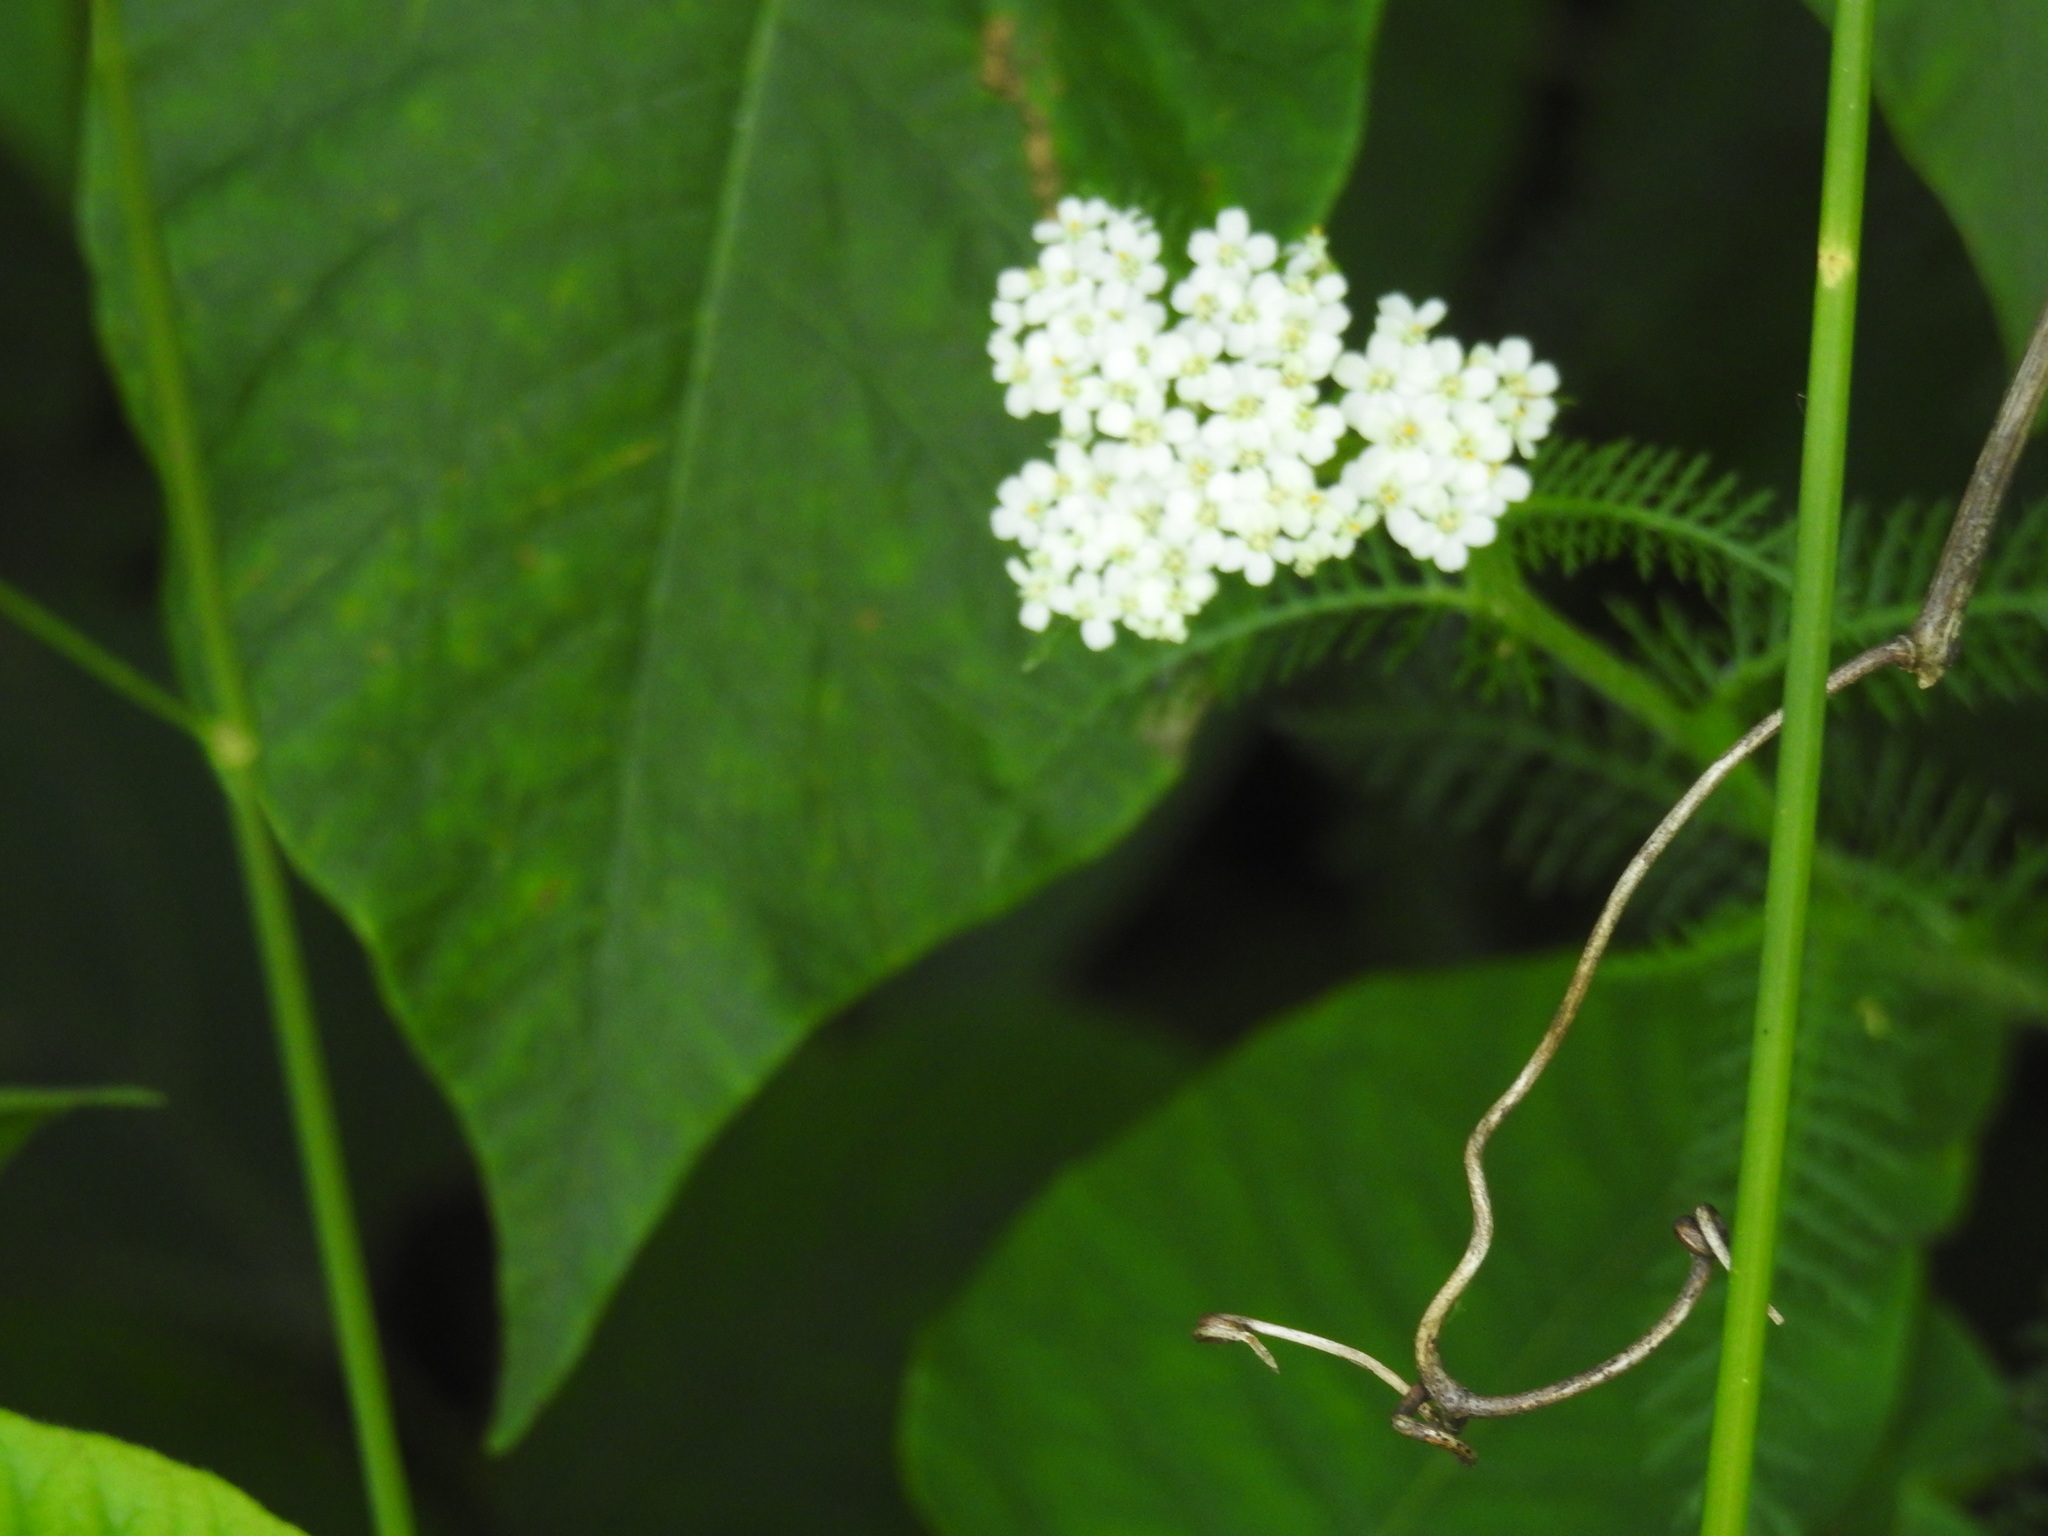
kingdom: Plantae
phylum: Tracheophyta
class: Magnoliopsida
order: Asterales
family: Asteraceae
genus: Achillea
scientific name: Achillea millefolium
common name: Yarrow
